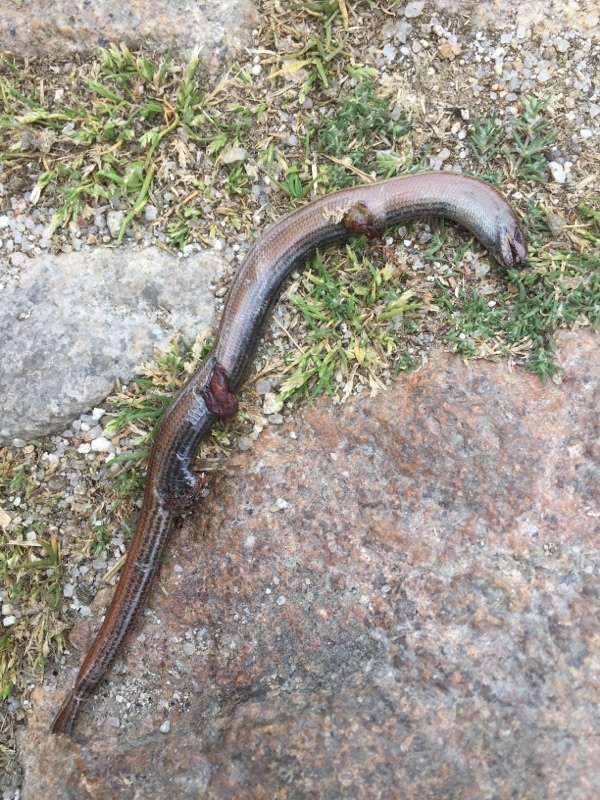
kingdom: Animalia
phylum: Chordata
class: Squamata
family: Anguidae
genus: Anguis
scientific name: Anguis fragilis
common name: Slow worm
